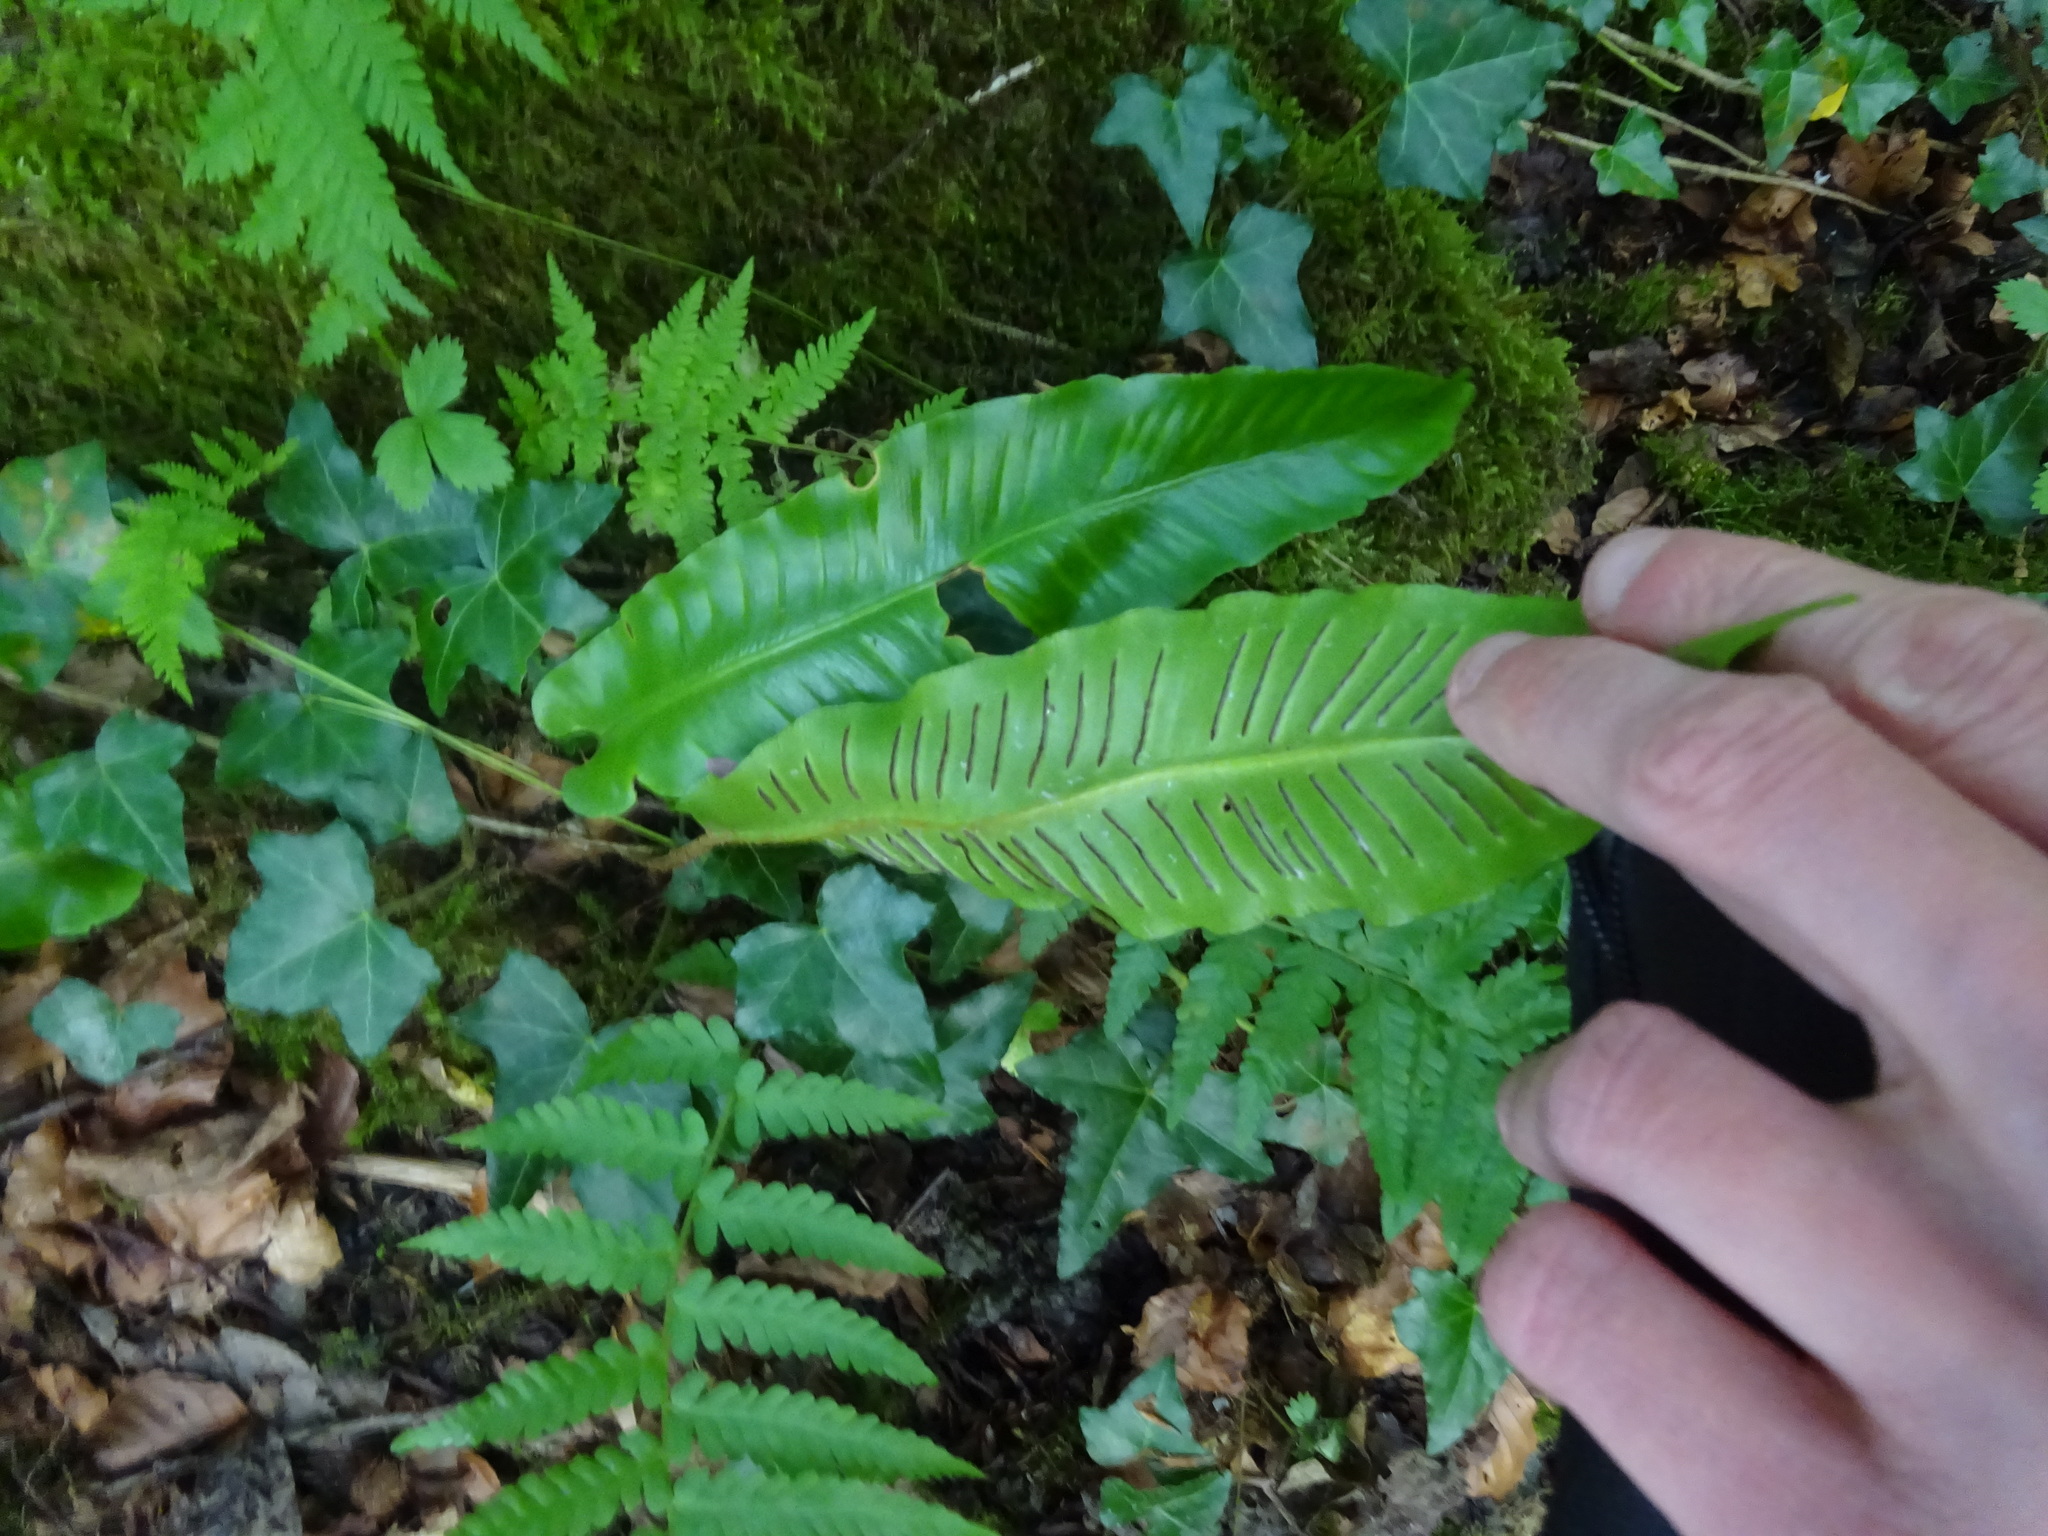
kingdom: Plantae
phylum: Tracheophyta
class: Polypodiopsida
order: Polypodiales
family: Aspleniaceae
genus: Asplenium
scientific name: Asplenium scolopendrium
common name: Hart's-tongue fern
